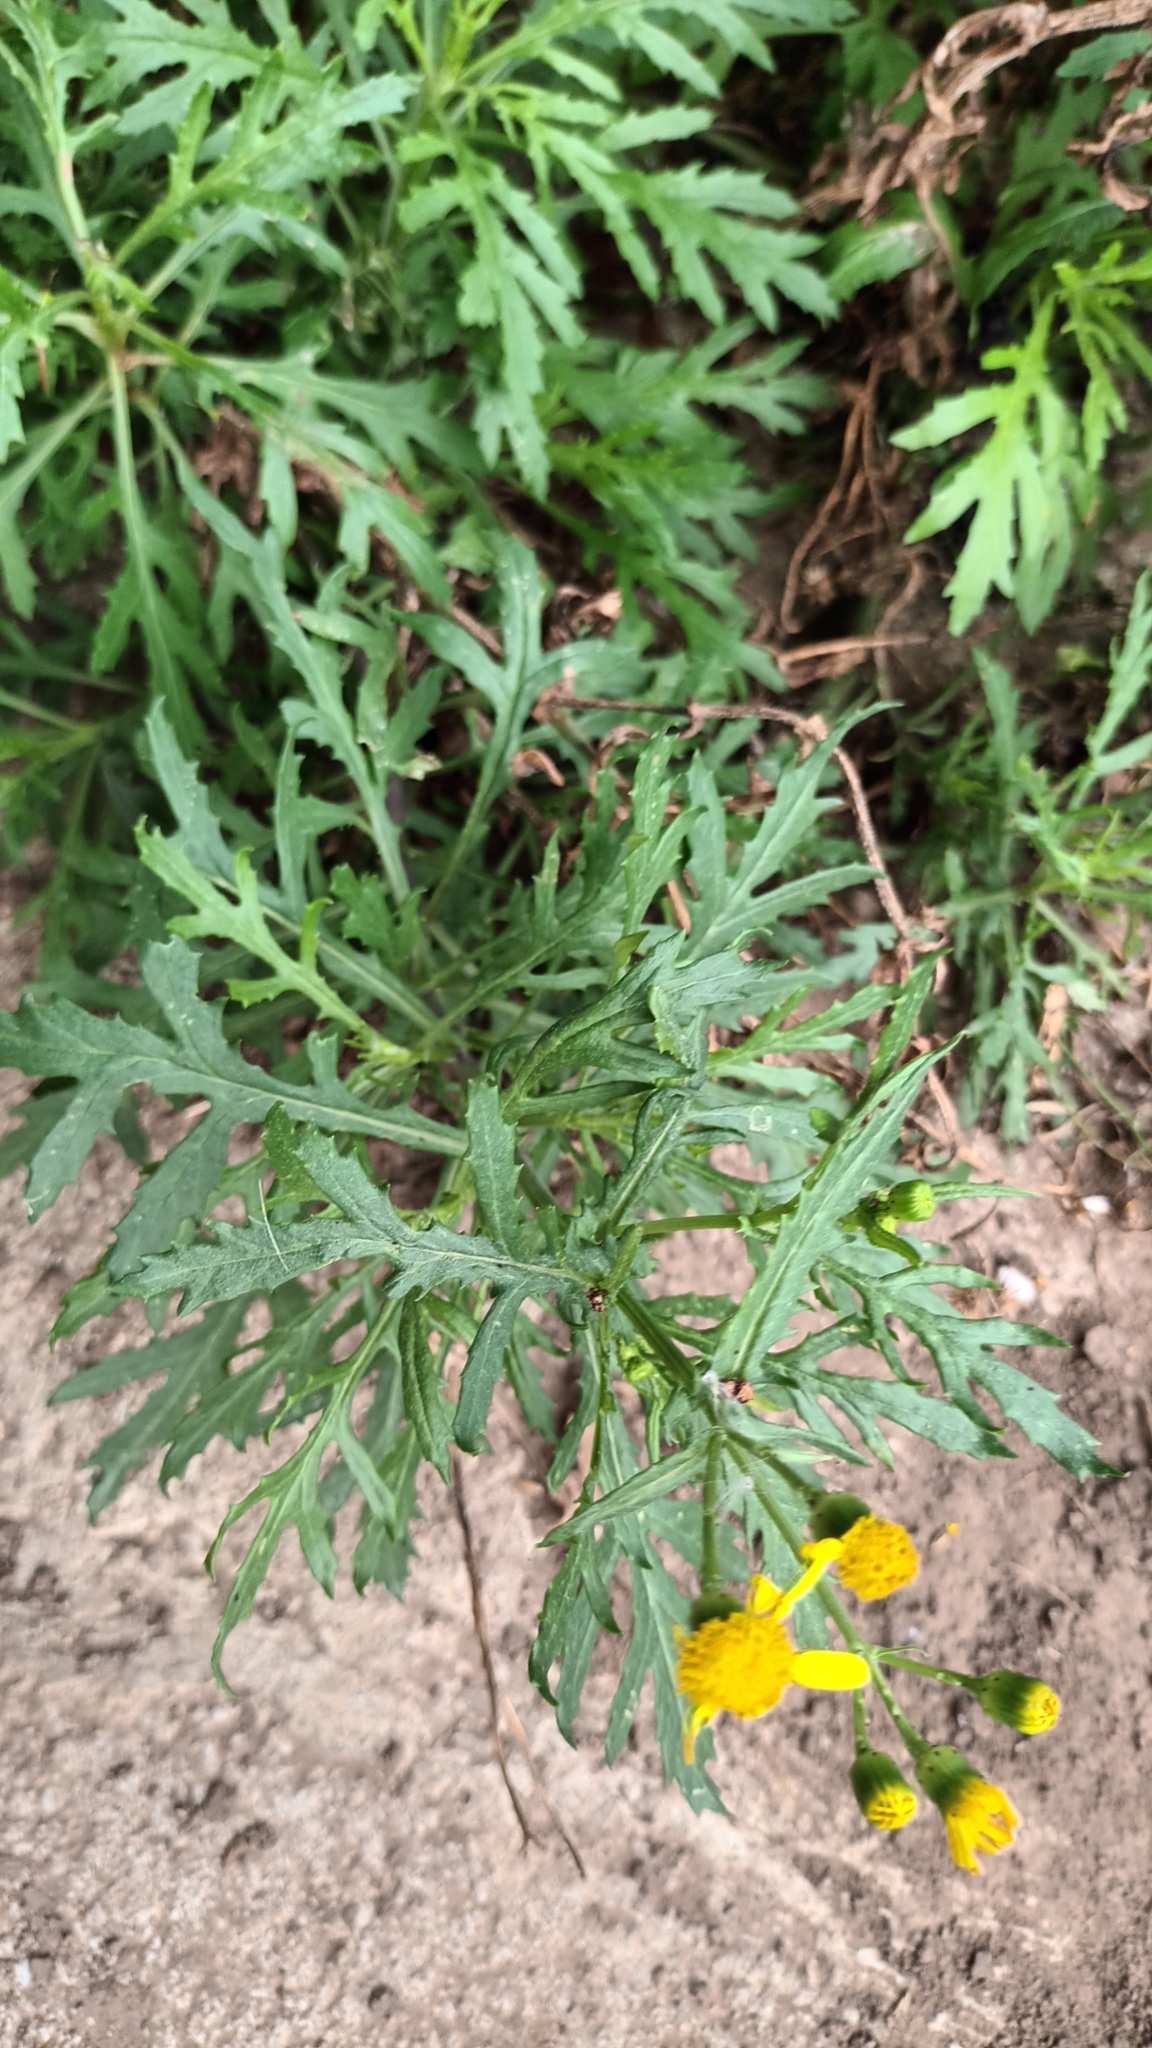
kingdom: Plantae
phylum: Tracheophyta
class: Magnoliopsida
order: Asterales
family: Asteraceae
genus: Senecio
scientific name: Senecio squalidus
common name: Oxford ragwort
